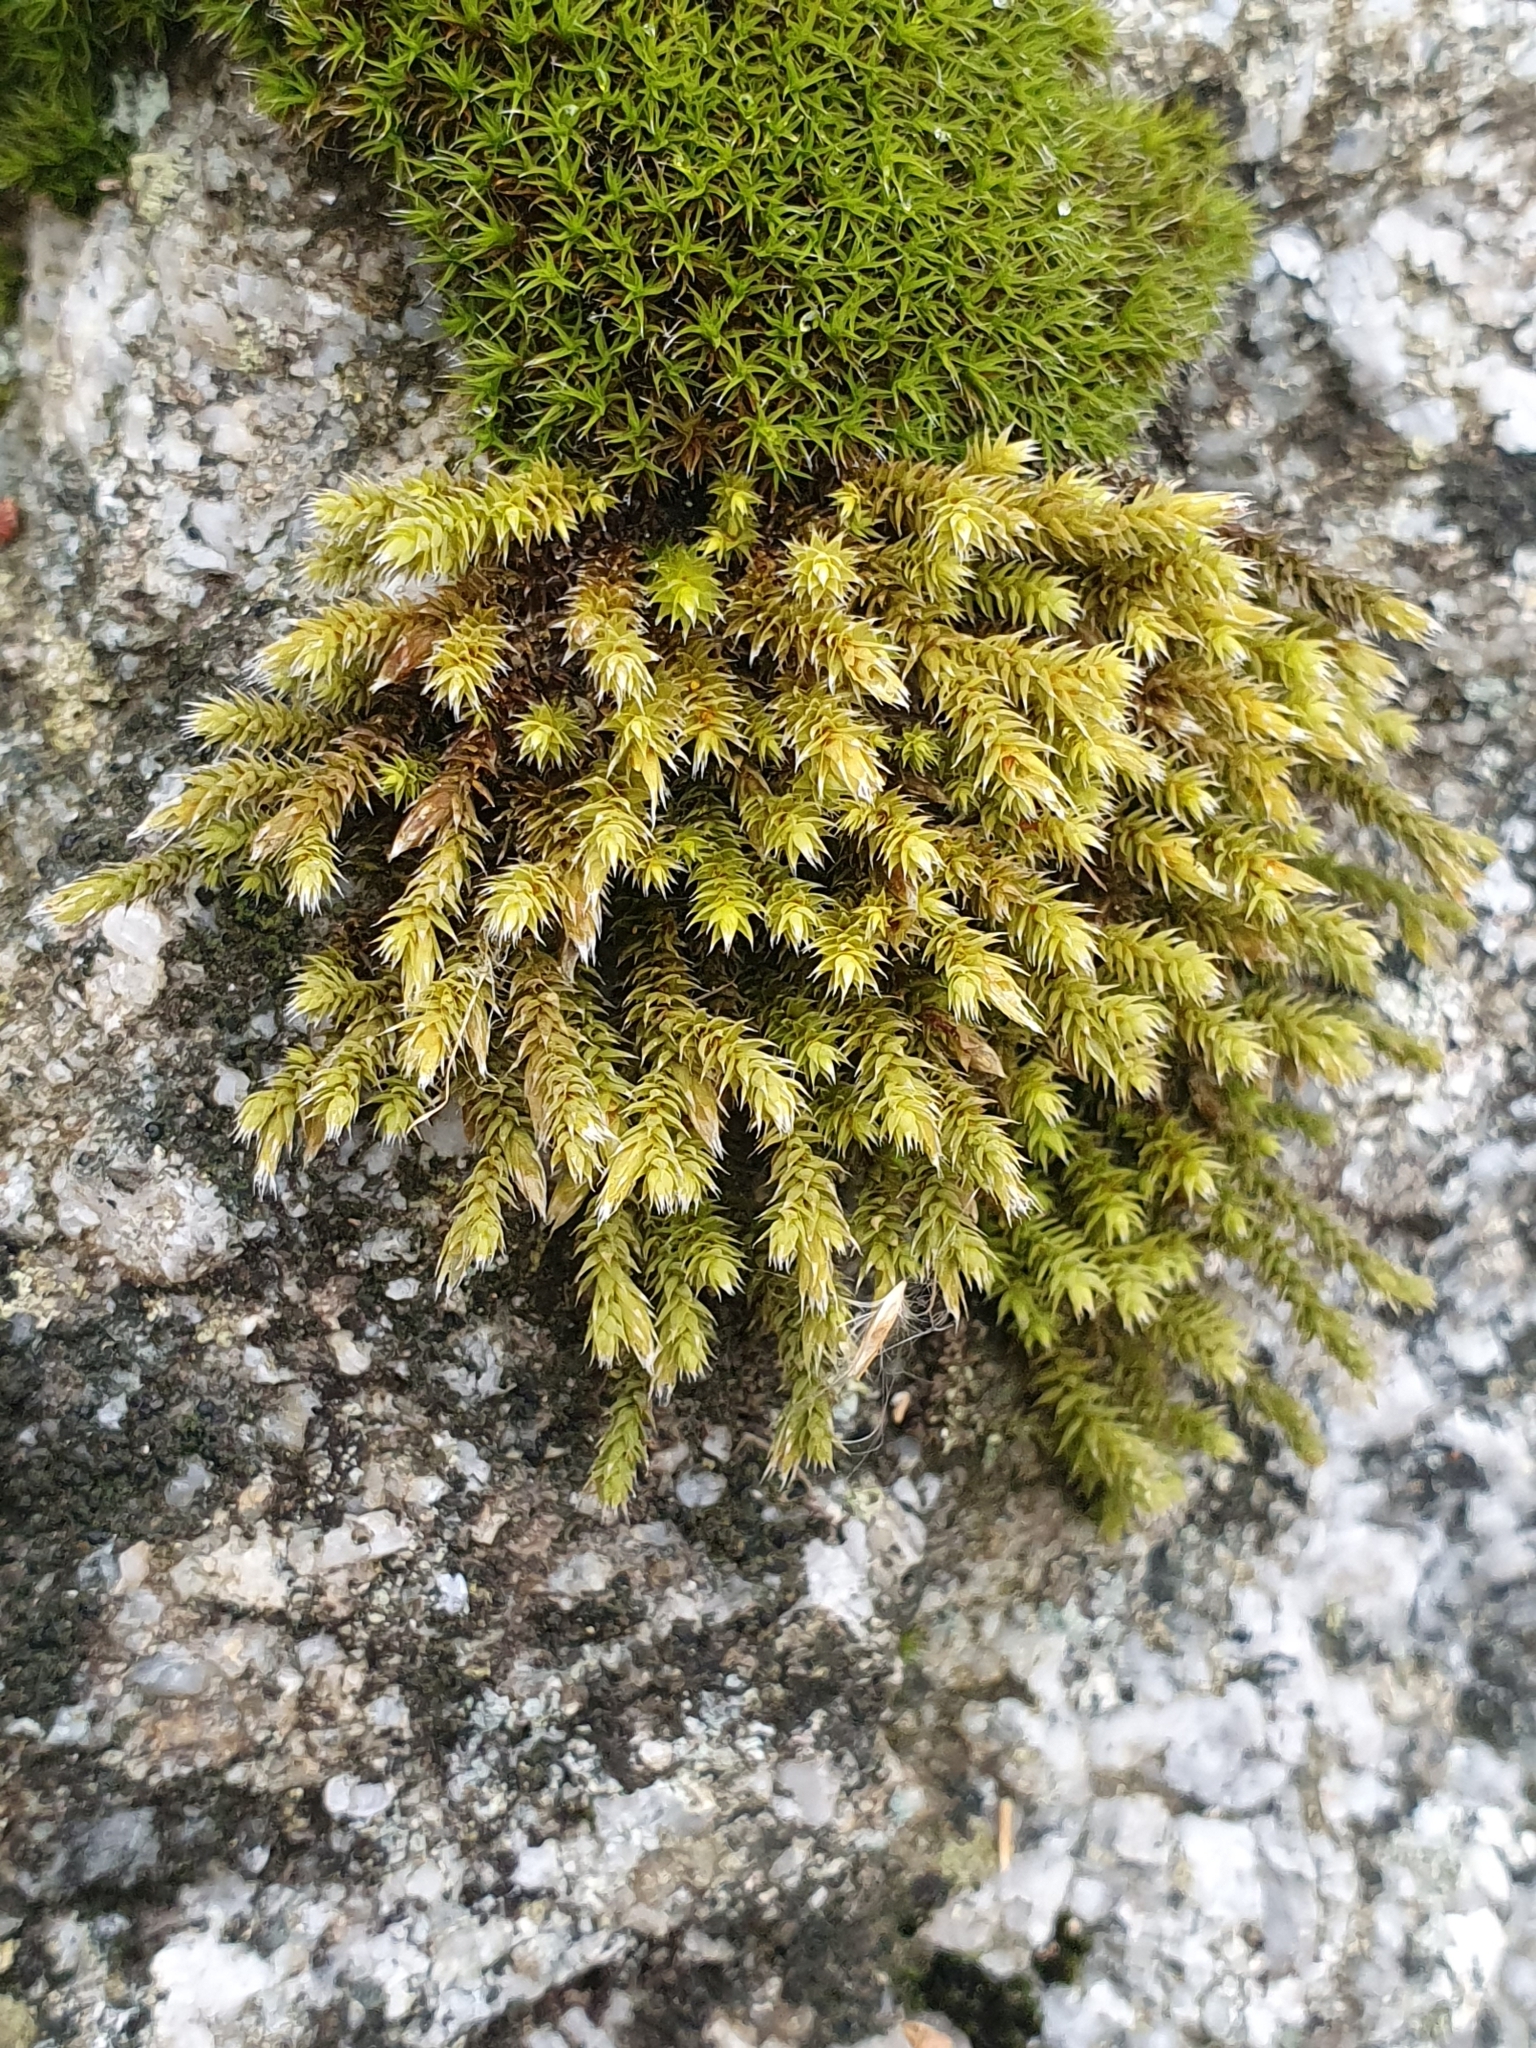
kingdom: Plantae
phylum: Bryophyta
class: Bryopsida
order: Hedwigiales
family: Hedwigiaceae
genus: Hedwigia
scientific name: Hedwigia ciliata
